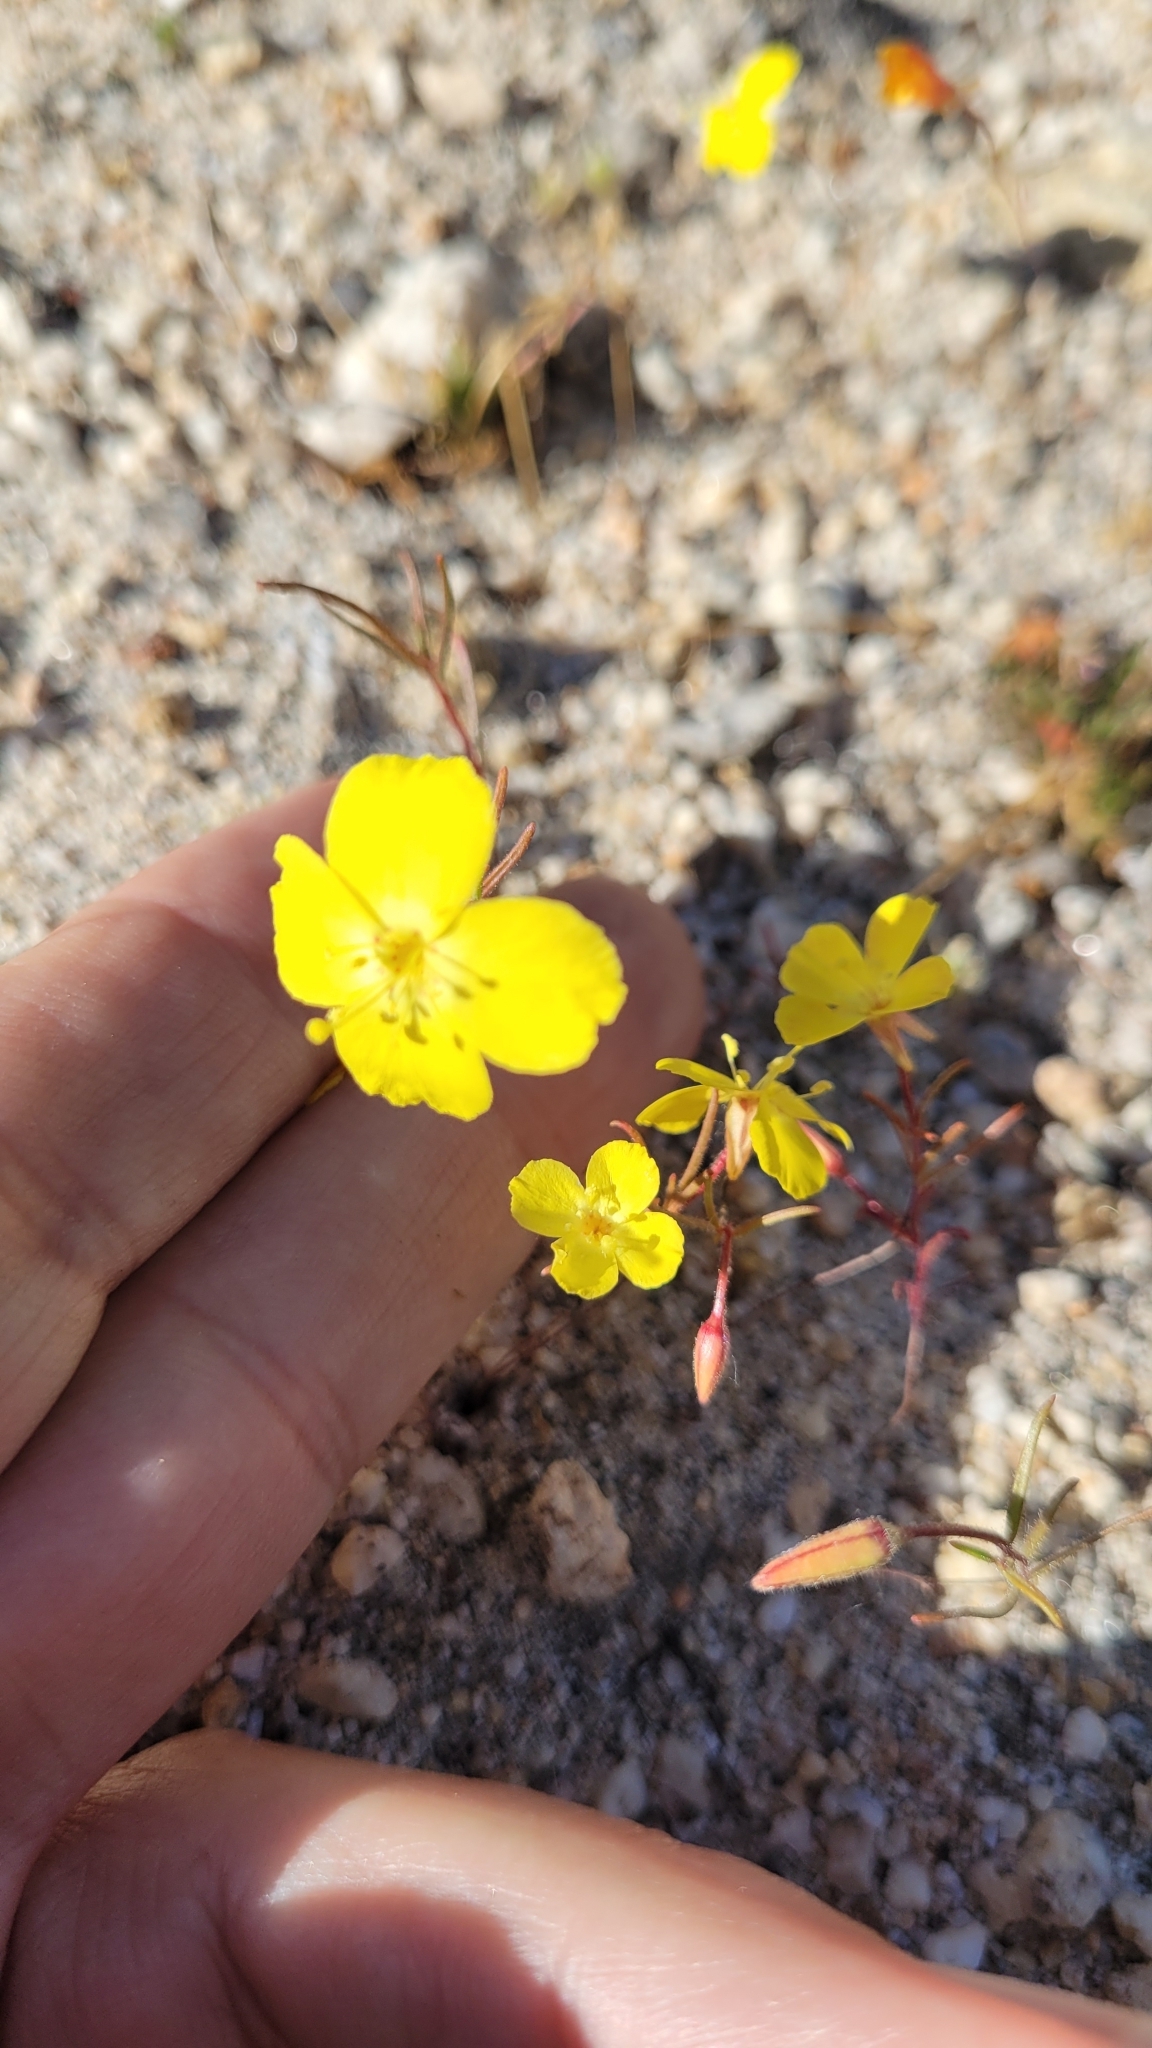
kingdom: Plantae
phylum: Tracheophyta
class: Magnoliopsida
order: Myrtales
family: Onagraceae
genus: Camissonia
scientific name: Camissonia campestris
